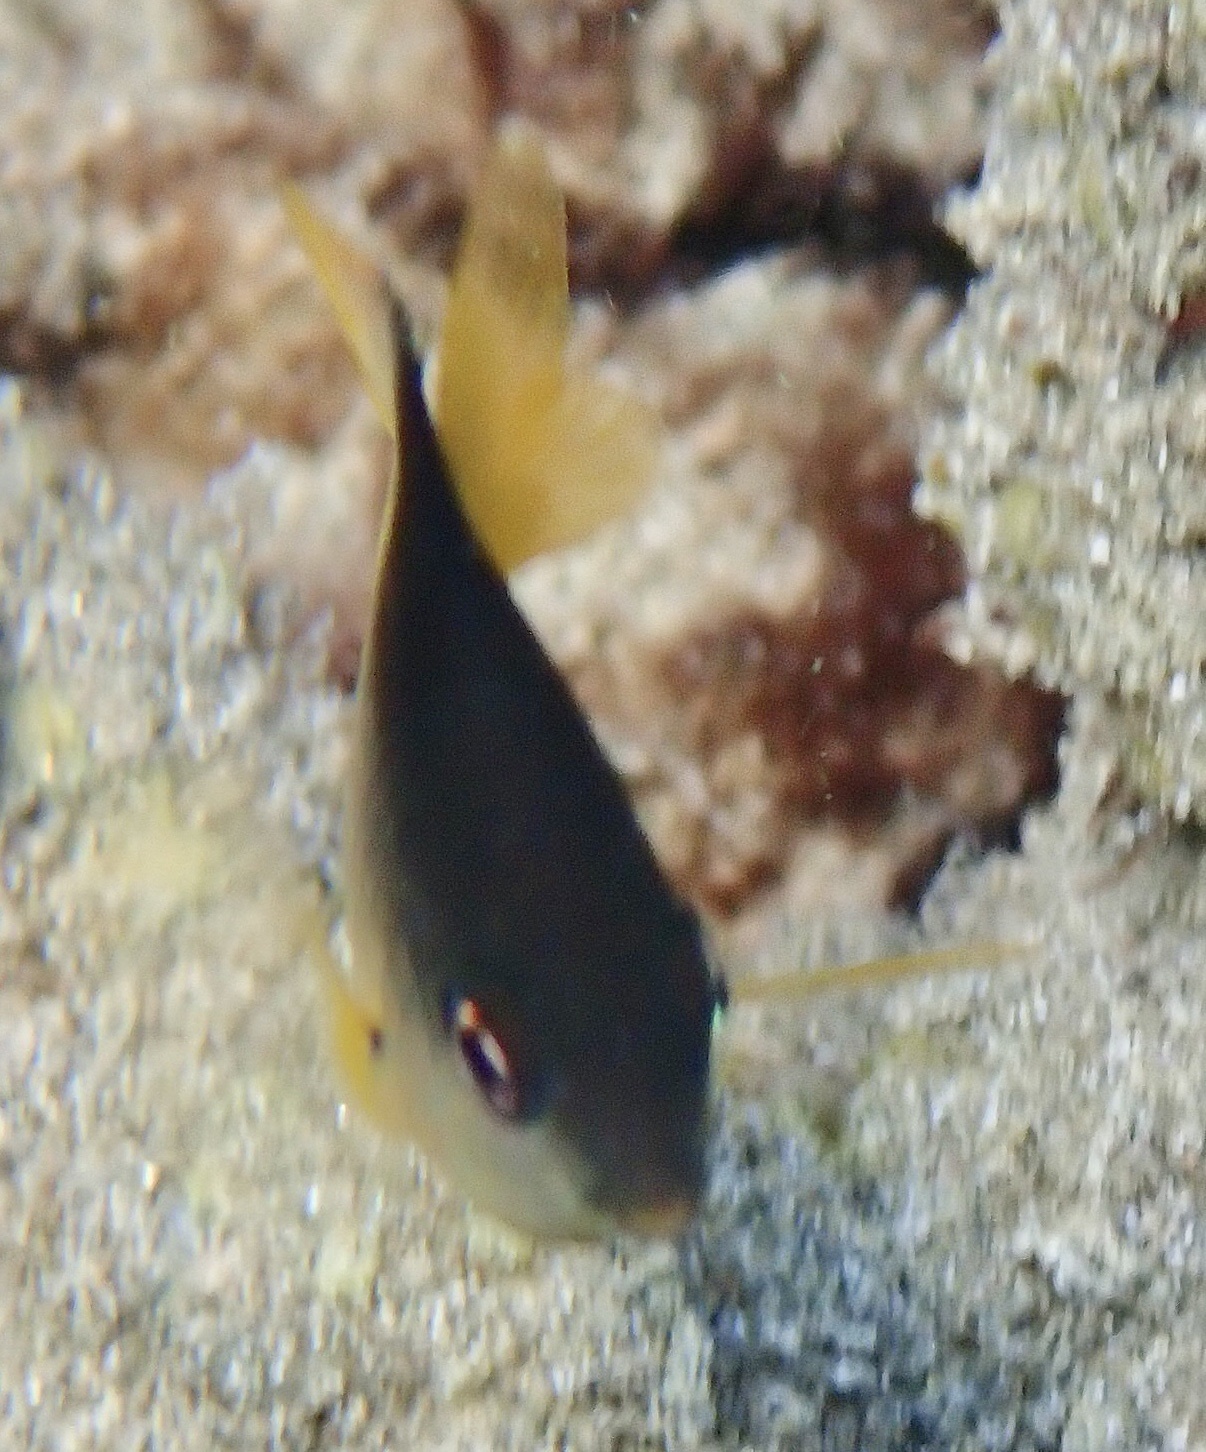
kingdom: Animalia
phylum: Chordata
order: Perciformes
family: Pomacentridae
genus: Stegastes
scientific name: Stegastes nigricans
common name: Dusky gregory
